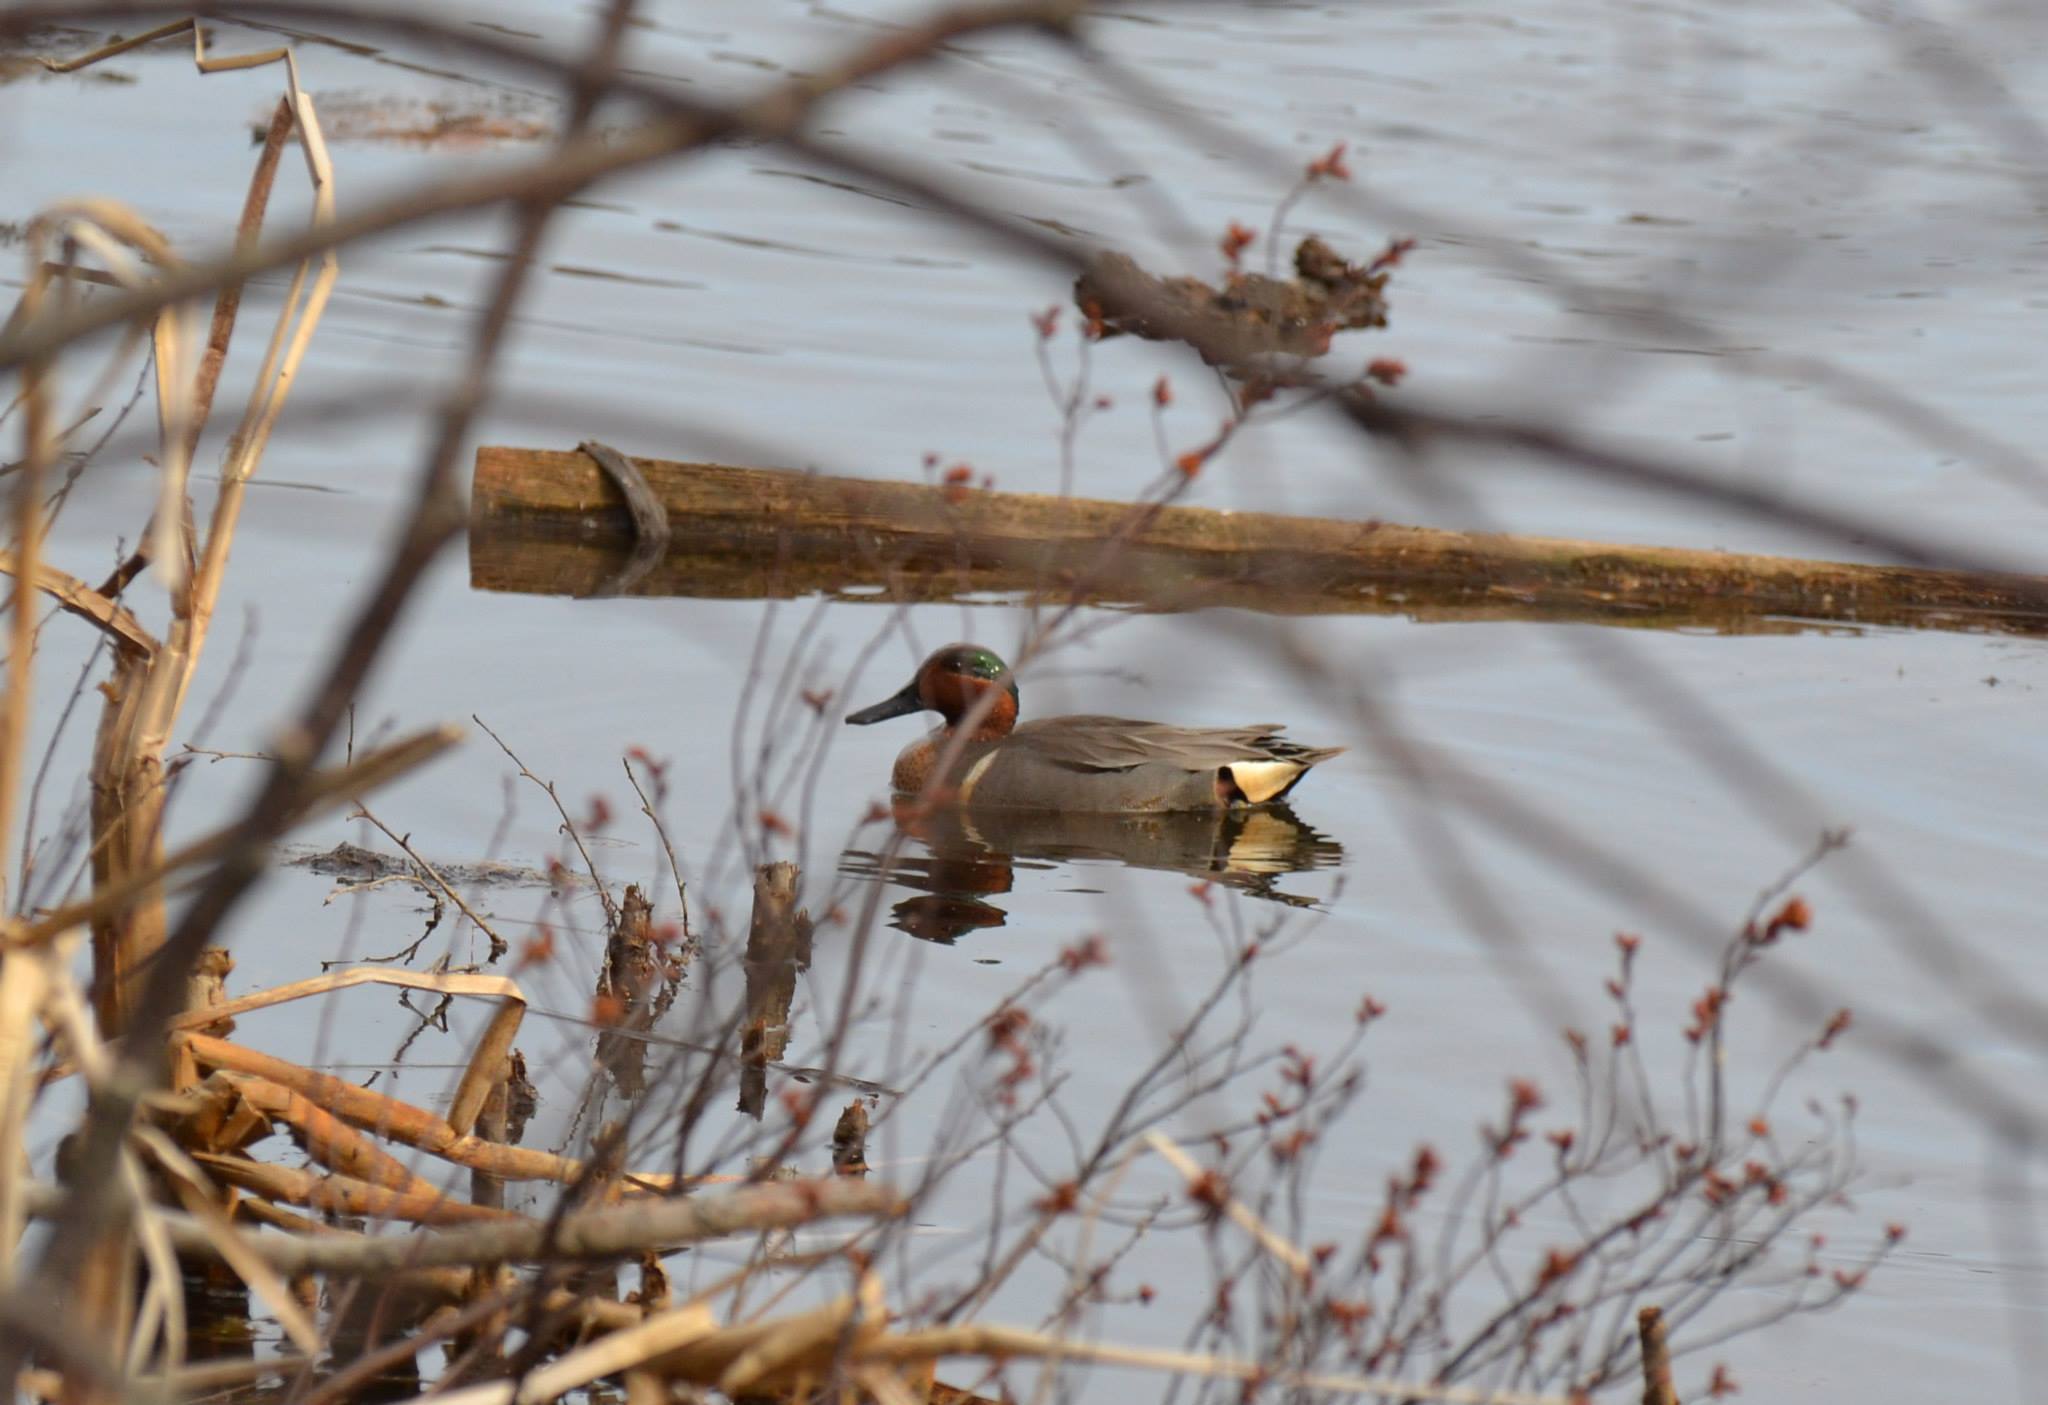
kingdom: Animalia
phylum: Chordata
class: Aves
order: Anseriformes
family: Anatidae
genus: Anas
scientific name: Anas crecca
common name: Eurasian teal
